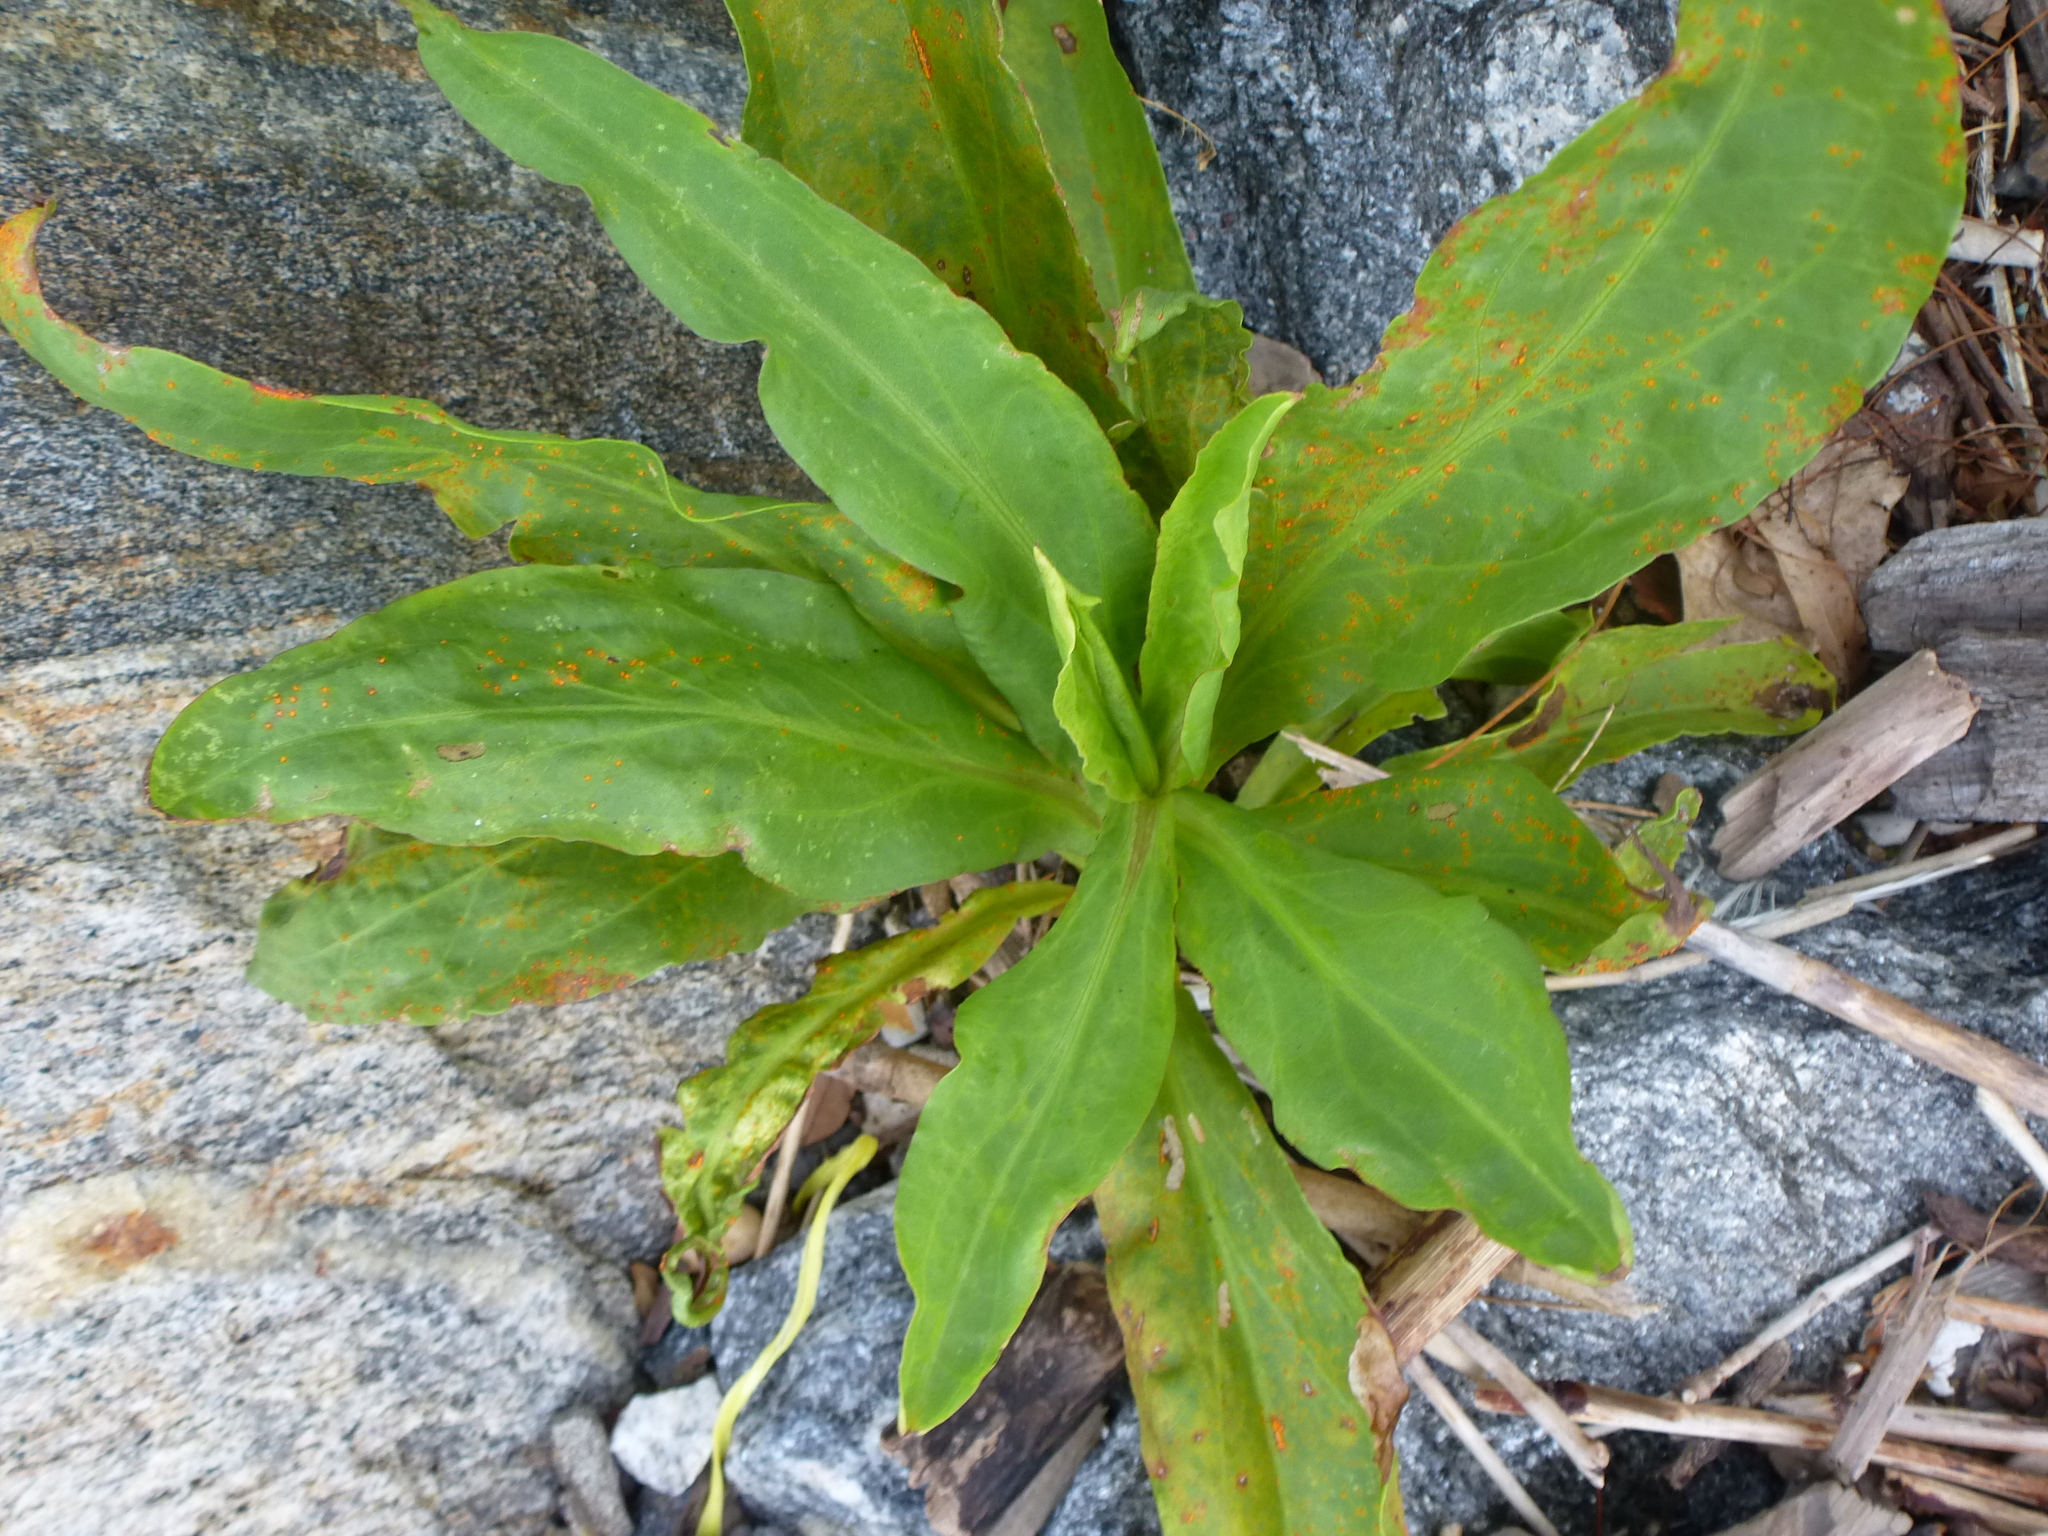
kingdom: Plantae
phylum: Tracheophyta
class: Magnoliopsida
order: Asterales
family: Asteraceae
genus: Solidago
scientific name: Solidago sempervirens
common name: Salt-marsh goldenrod
